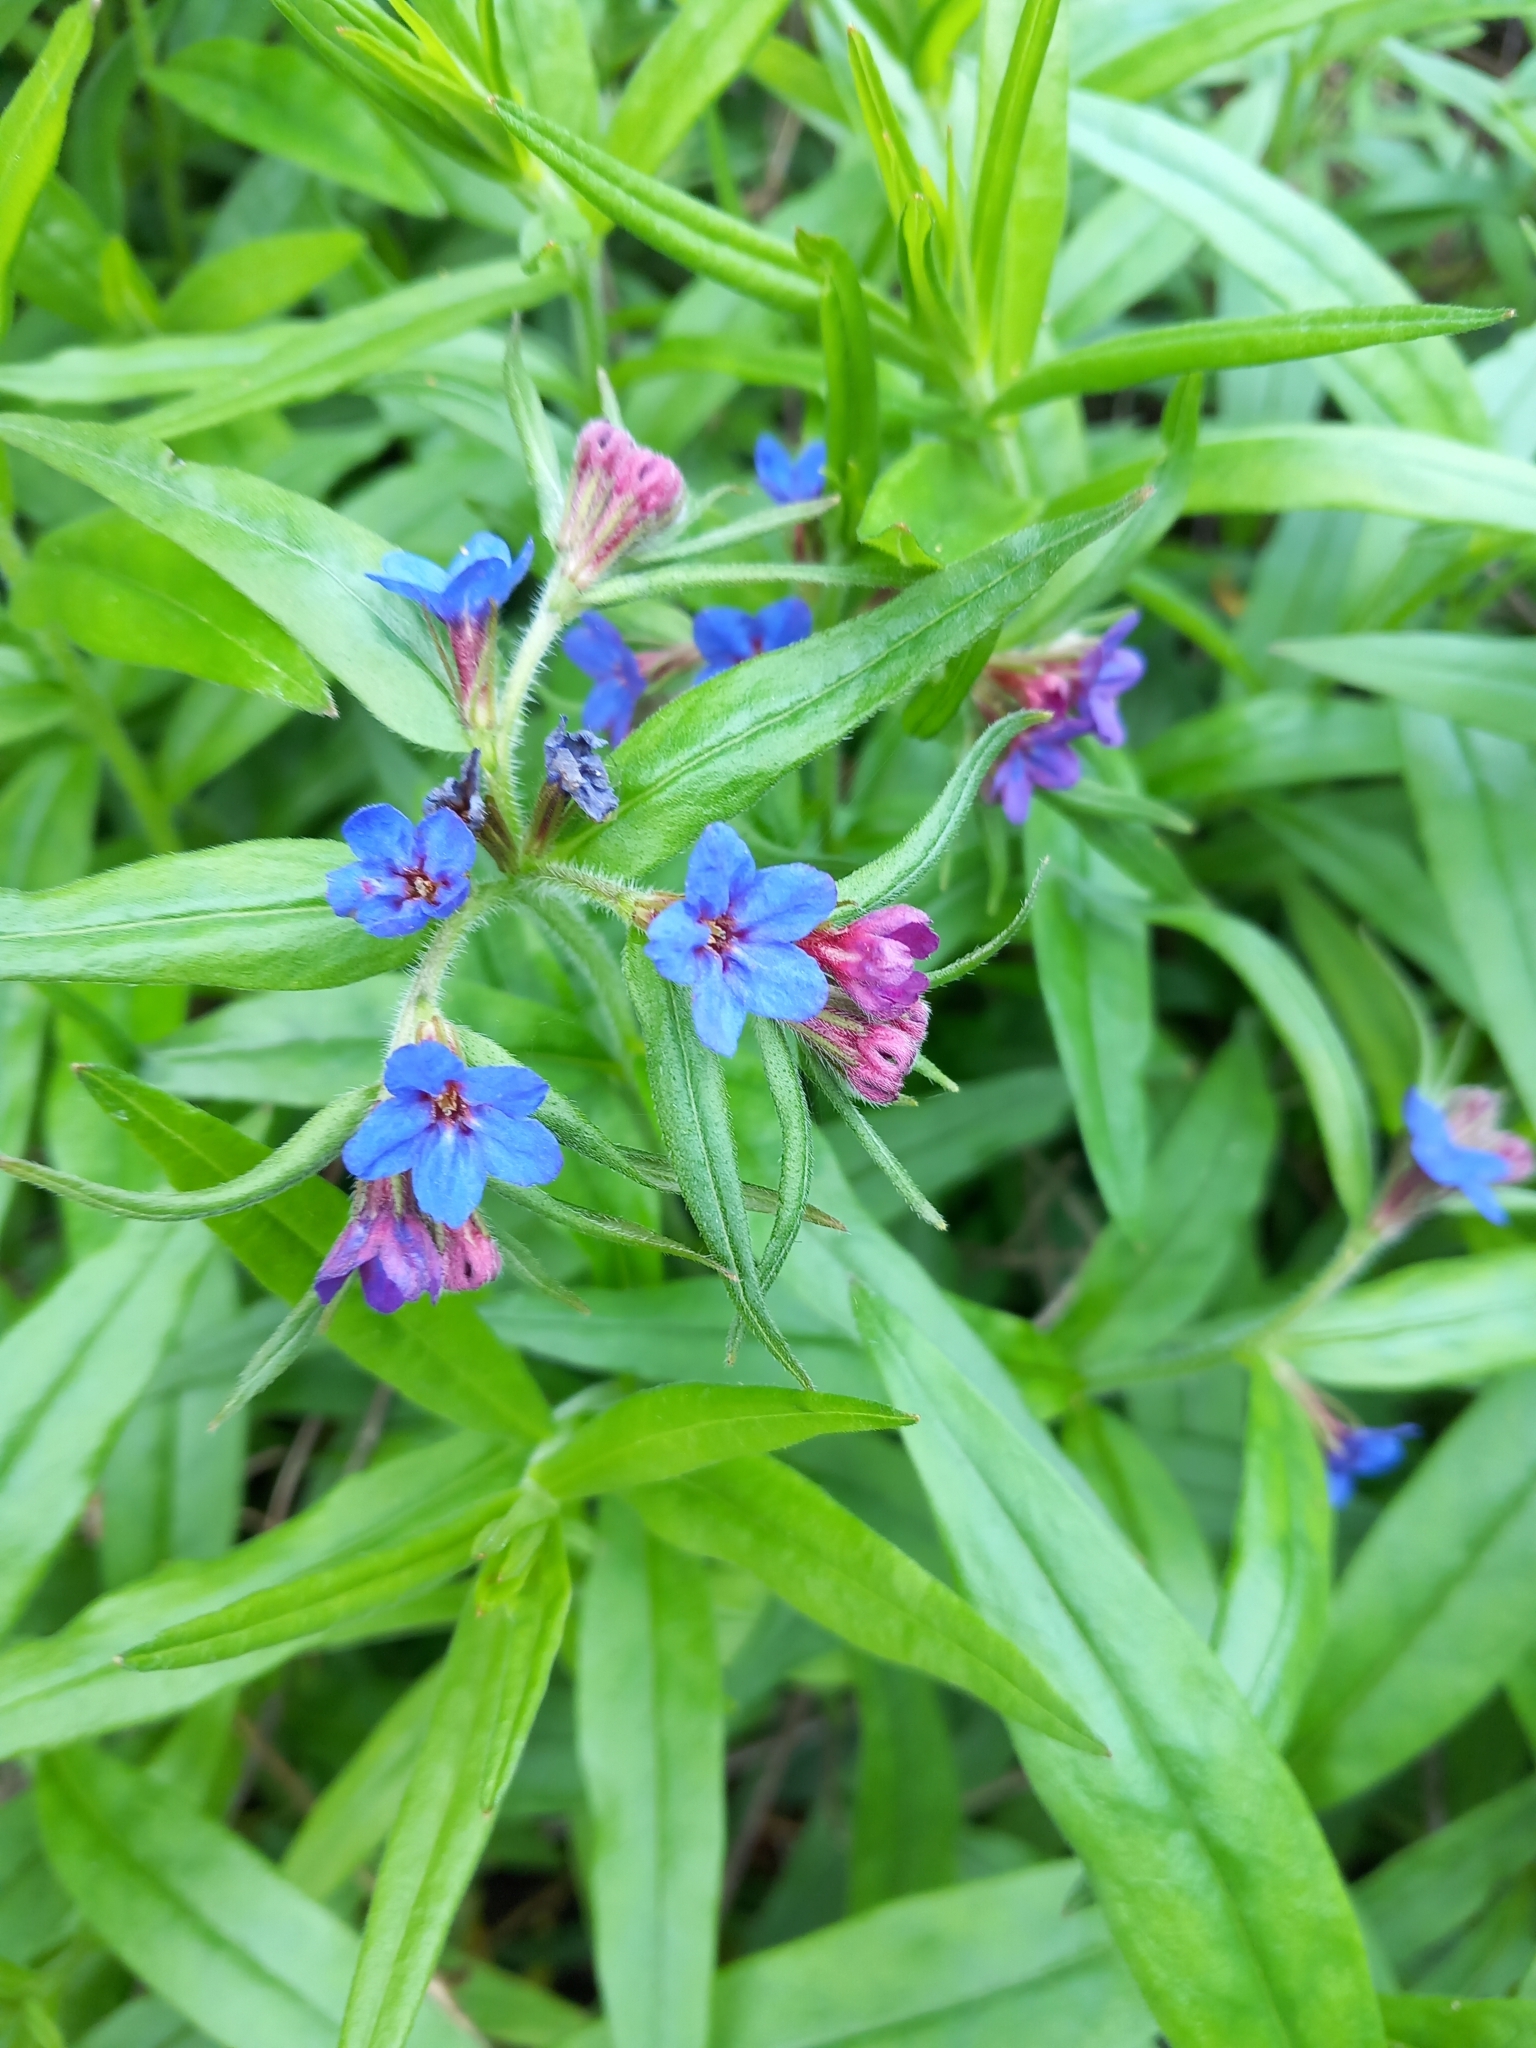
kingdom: Plantae
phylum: Tracheophyta
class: Magnoliopsida
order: Boraginales
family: Boraginaceae
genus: Aegonychon
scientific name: Aegonychon purpurocaeruleum
